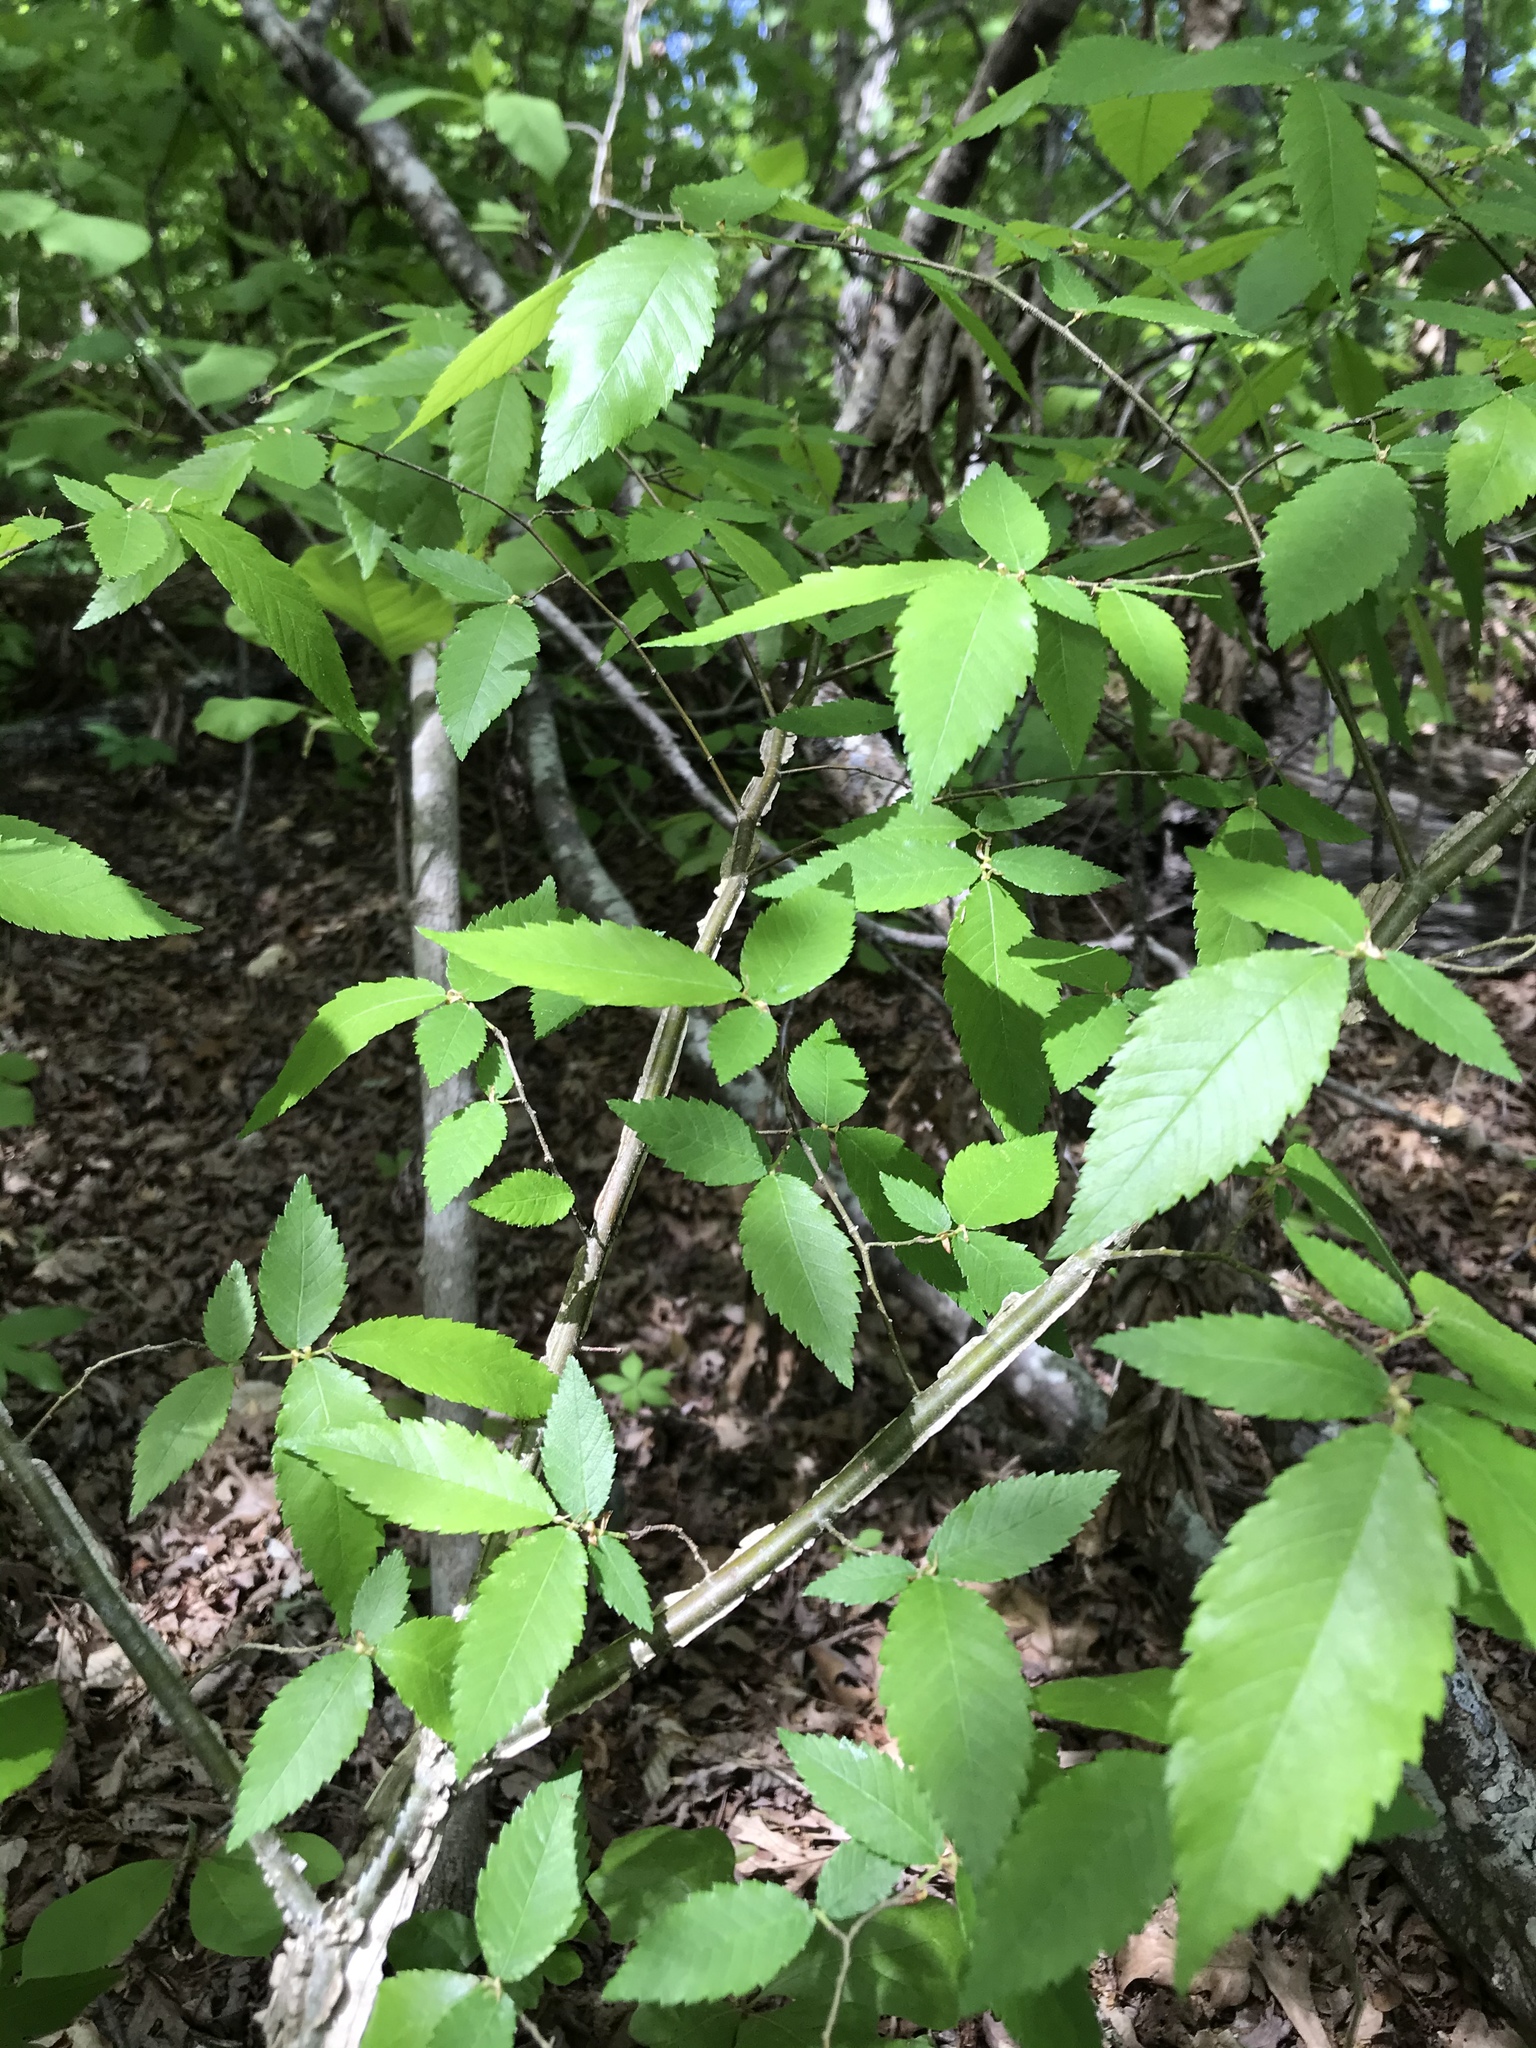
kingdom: Plantae
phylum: Tracheophyta
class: Magnoliopsida
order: Rosales
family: Ulmaceae
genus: Ulmus
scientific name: Ulmus alata
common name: Winged elm
